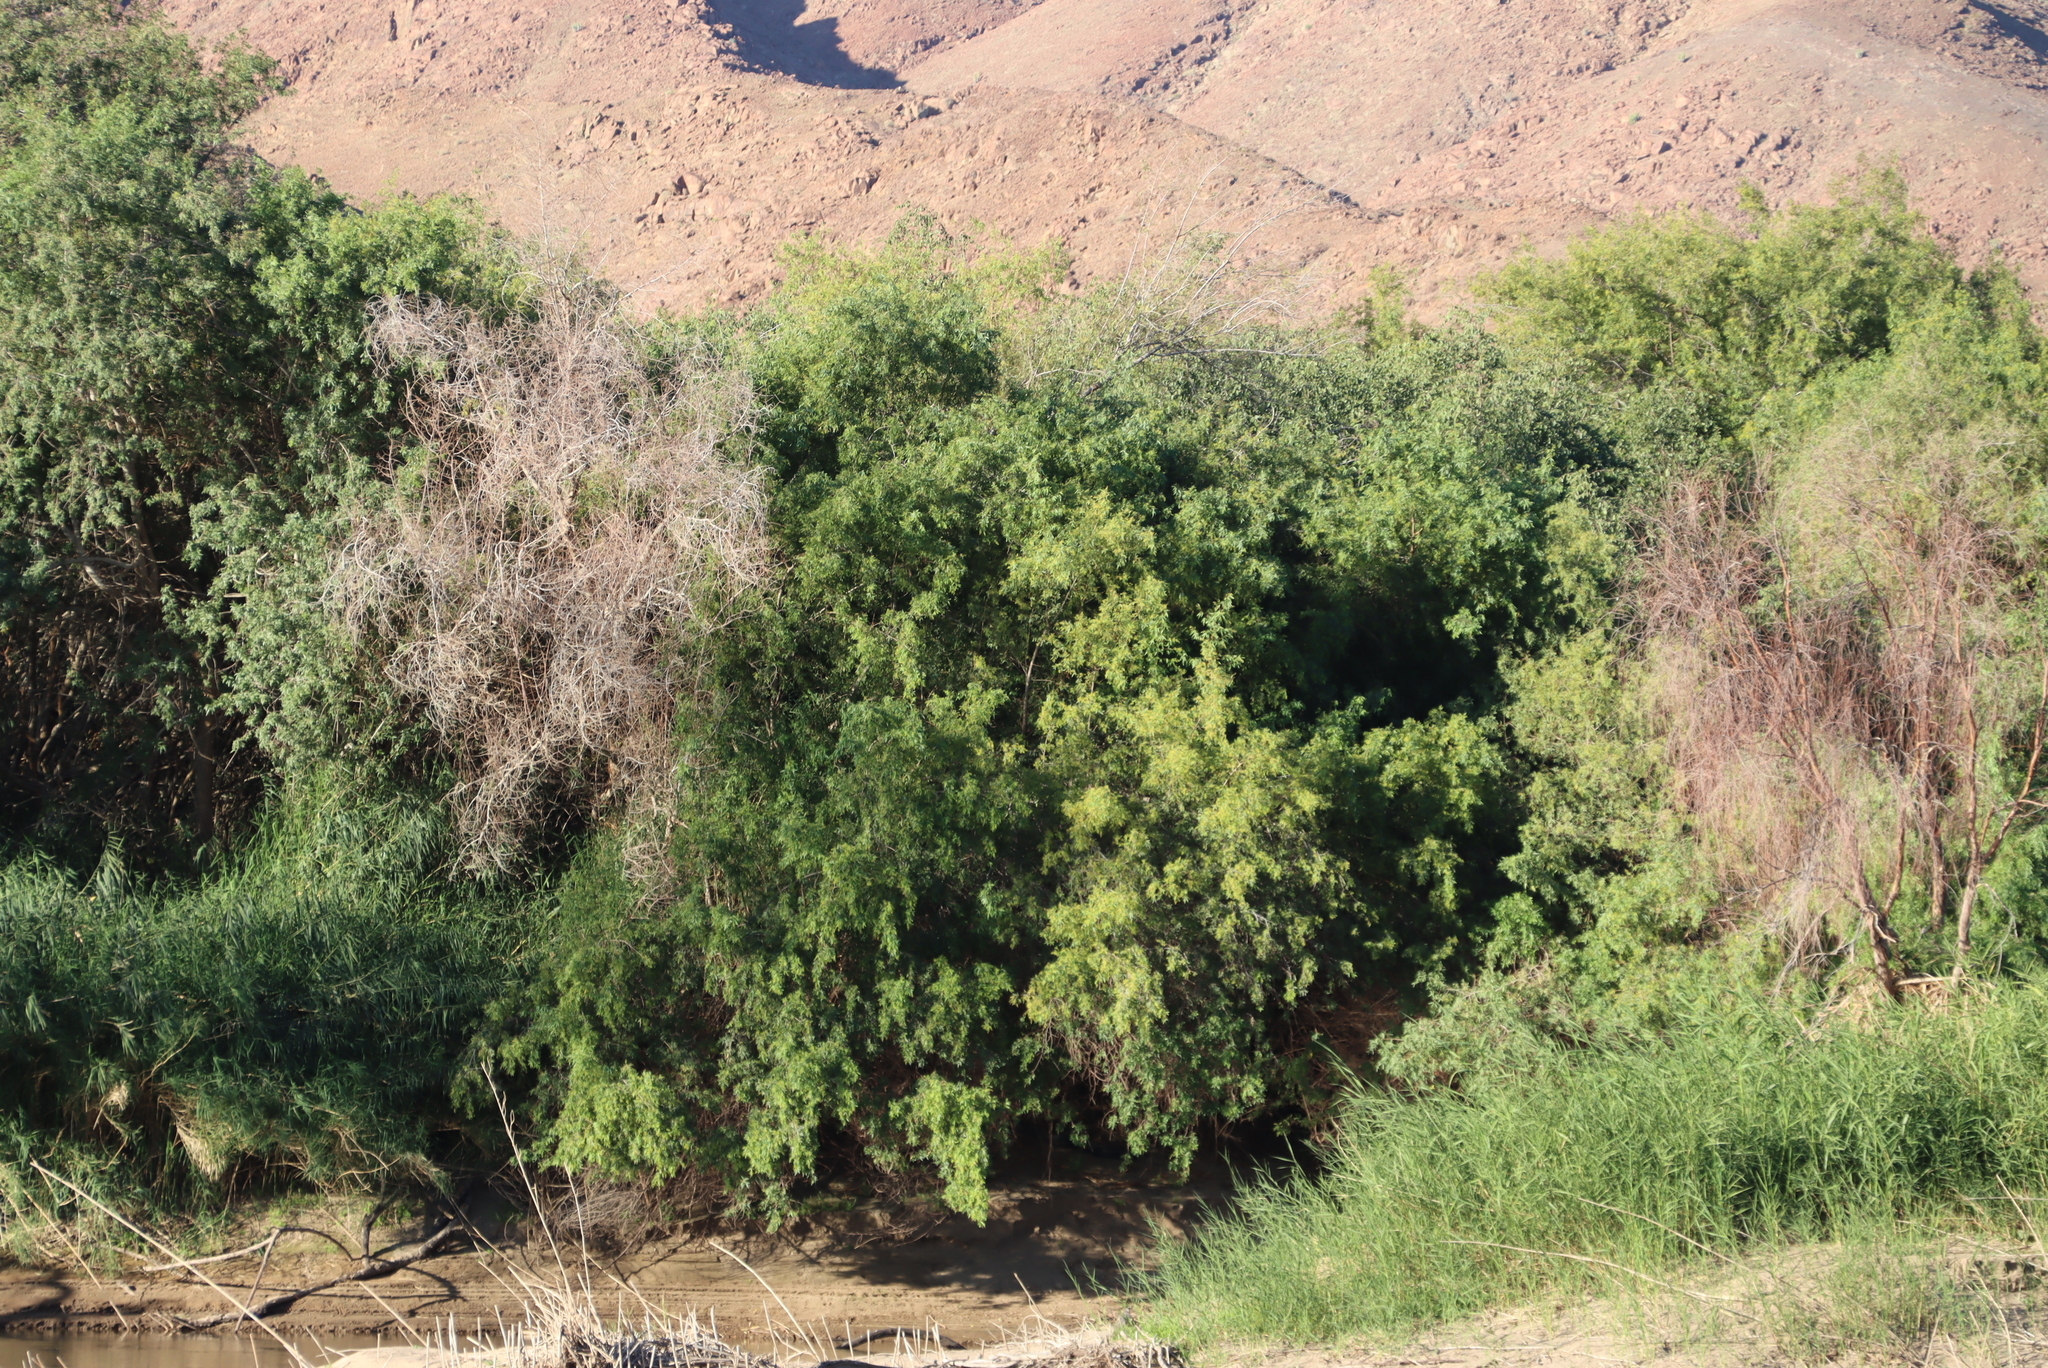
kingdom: Plantae
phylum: Tracheophyta
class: Magnoliopsida
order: Sapindales
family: Anacardiaceae
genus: Searsia
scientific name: Searsia pendulina
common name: White karee
